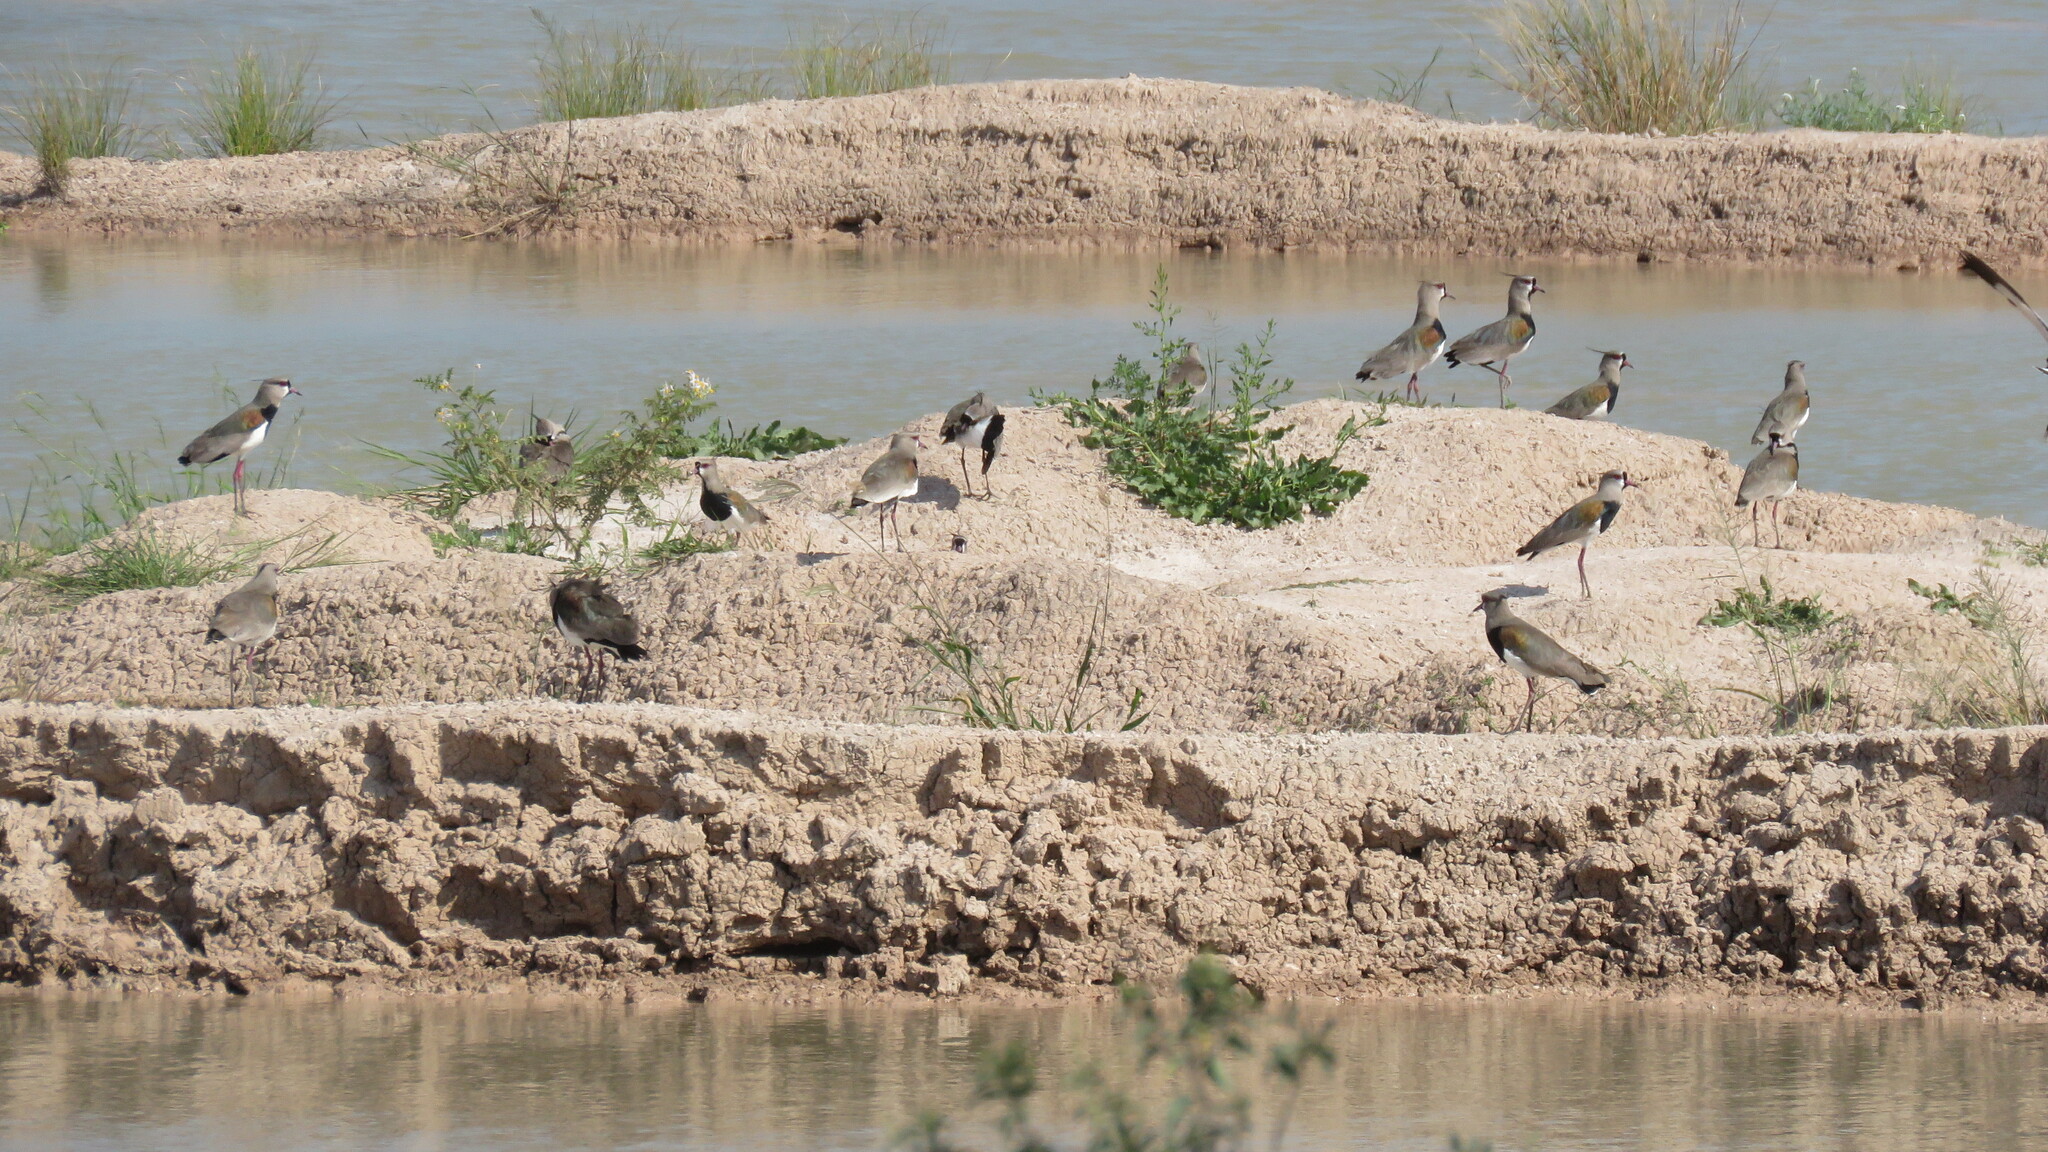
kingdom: Animalia
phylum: Chordata
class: Aves
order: Charadriiformes
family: Charadriidae
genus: Vanellus
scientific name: Vanellus chilensis
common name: Southern lapwing
